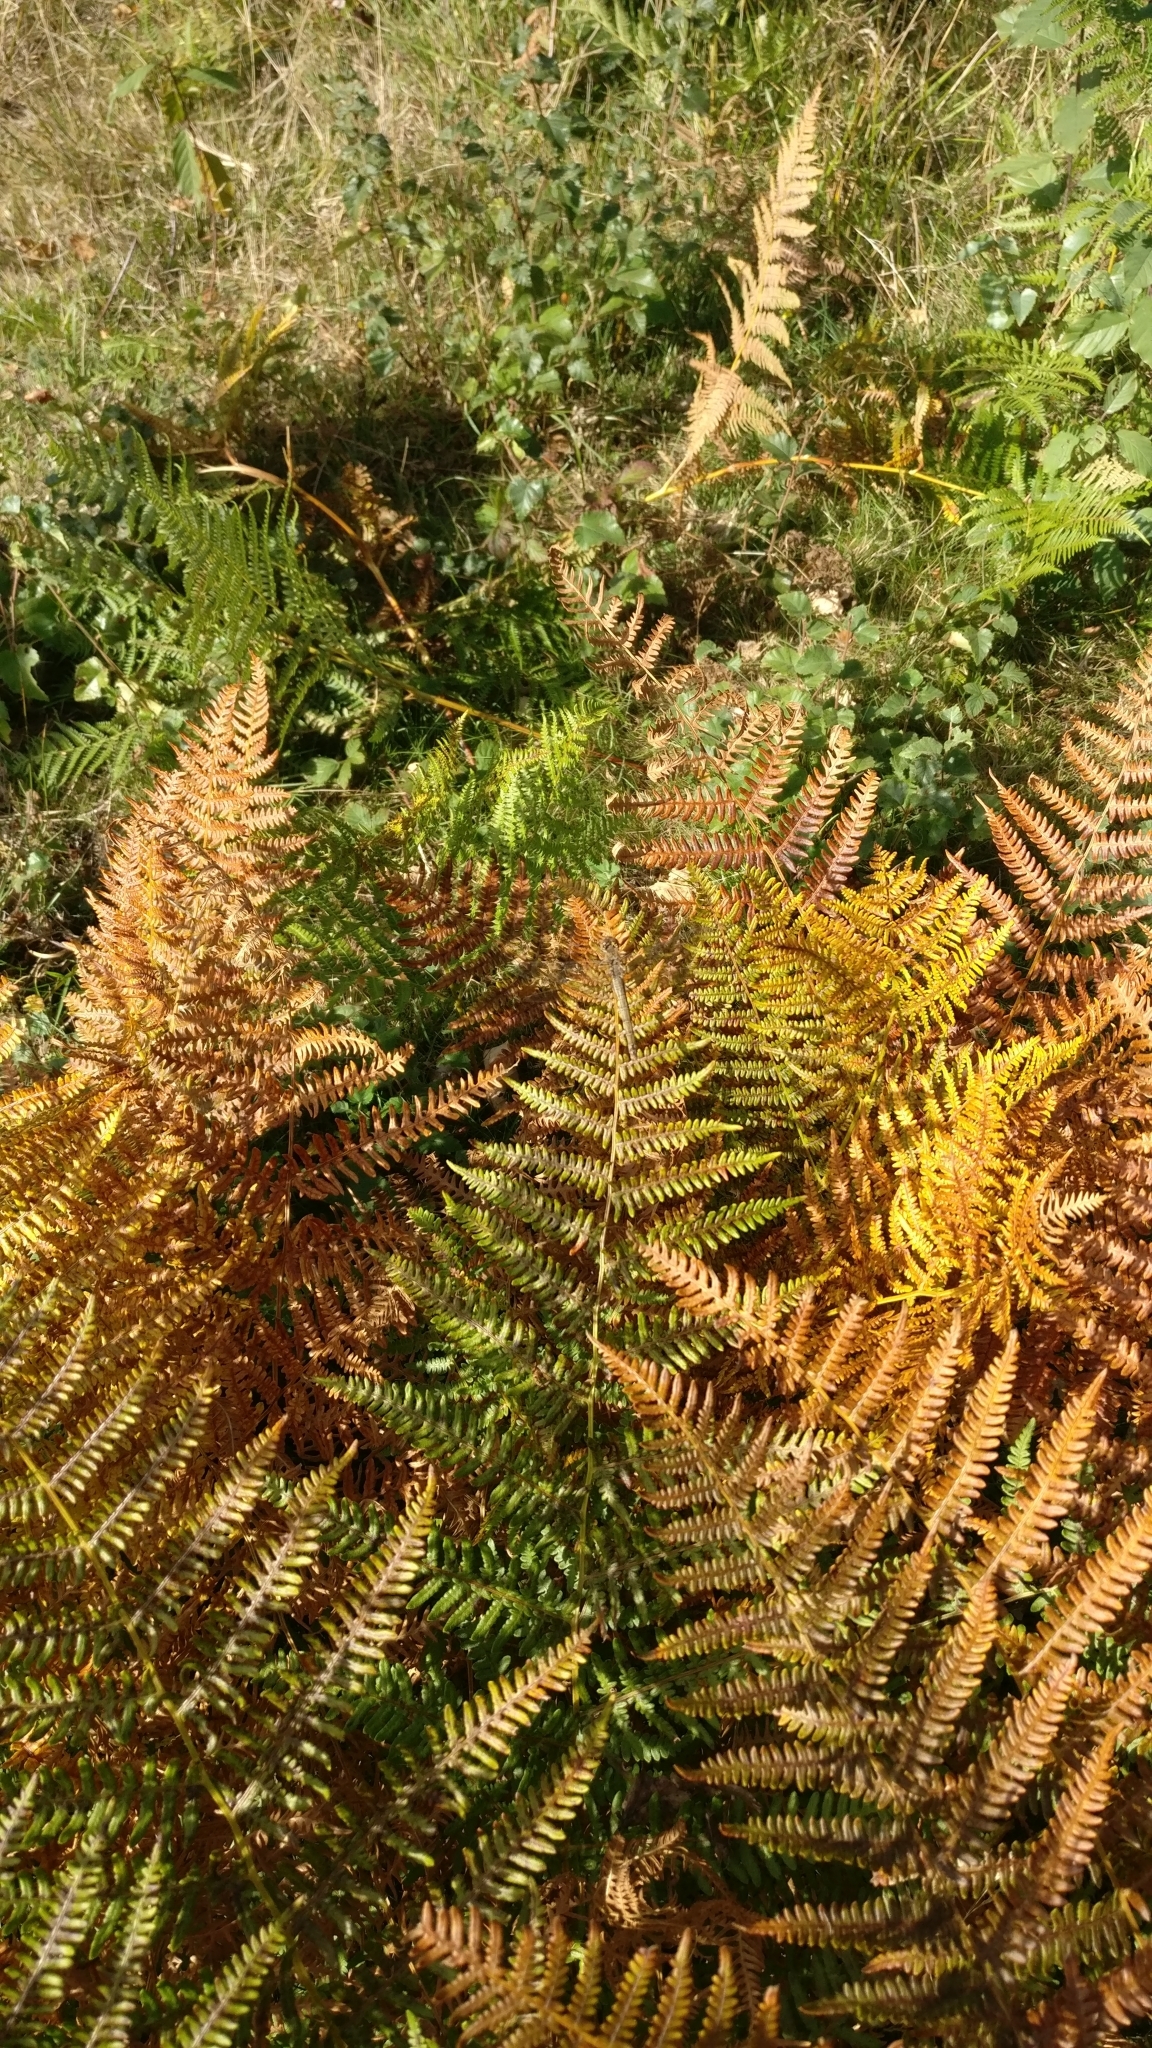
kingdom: Plantae
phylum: Tracheophyta
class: Polypodiopsida
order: Polypodiales
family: Dennstaedtiaceae
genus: Pteridium
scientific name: Pteridium aquilinum
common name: Bracken
